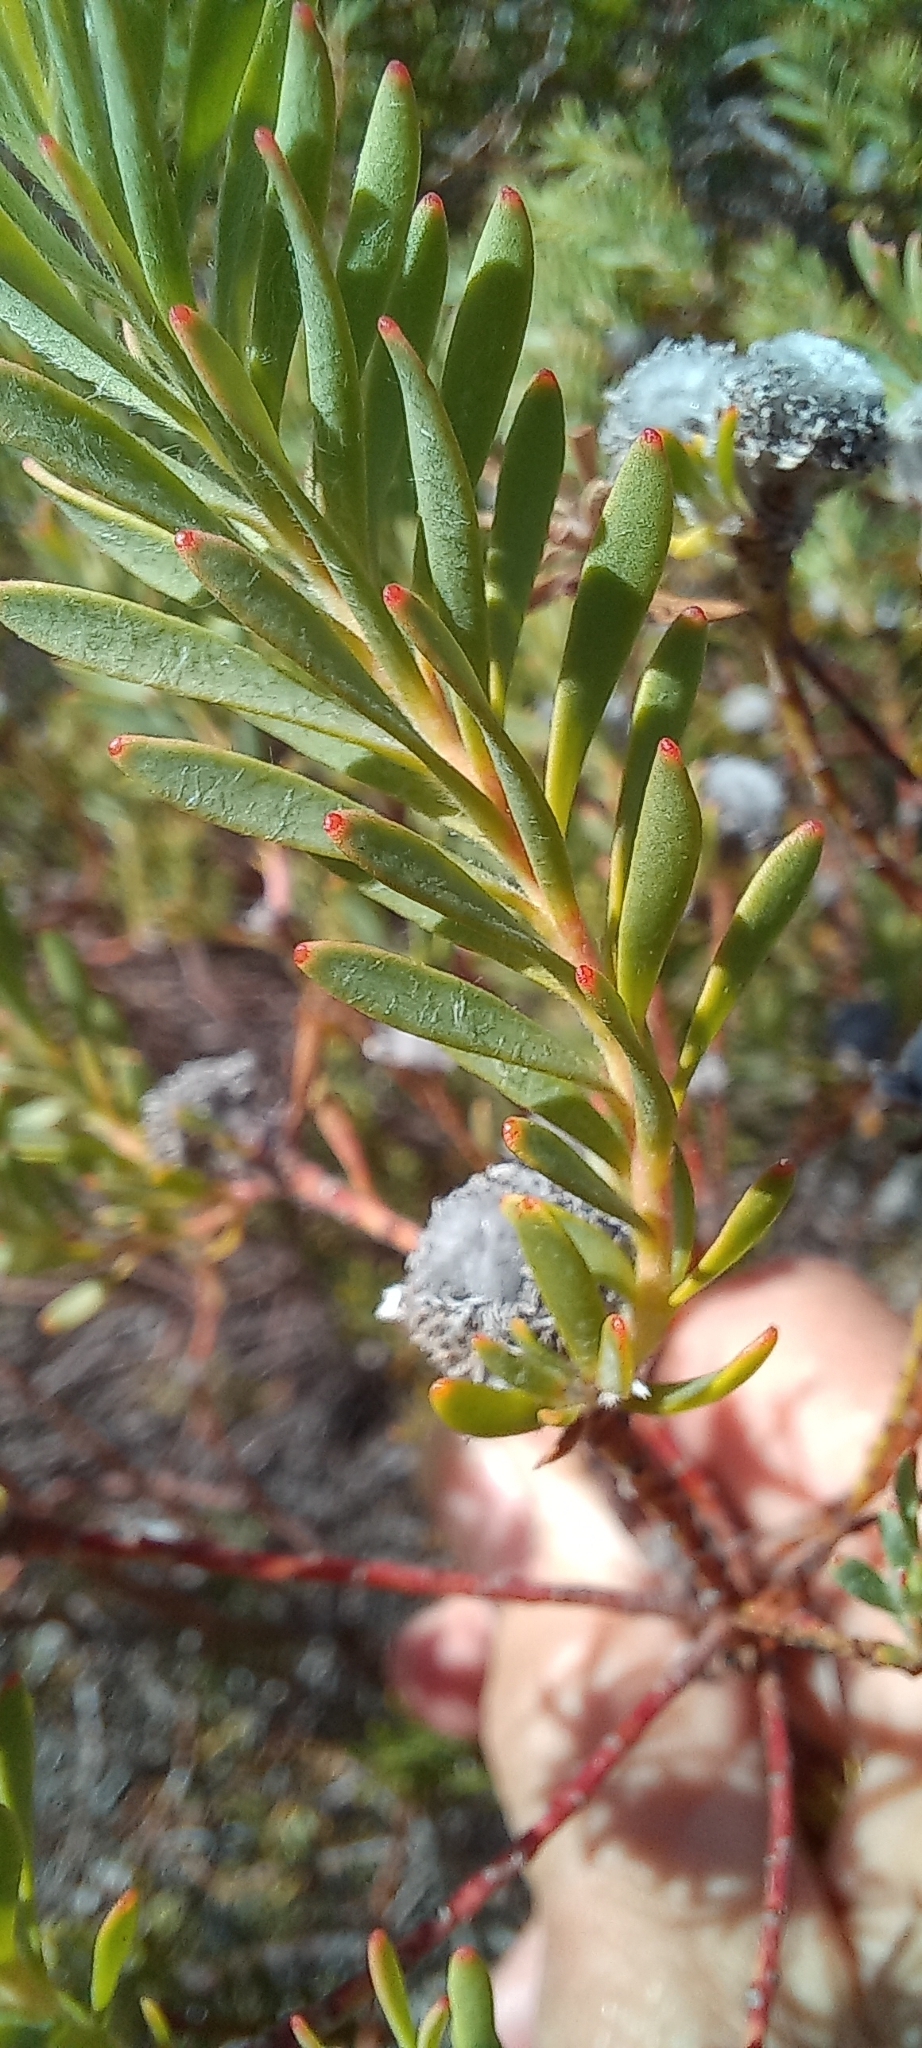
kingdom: Plantae
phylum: Tracheophyta
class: Magnoliopsida
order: Proteales
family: Proteaceae
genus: Leucadendron
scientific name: Leucadendron linifolium
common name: Line-leaf conebush
